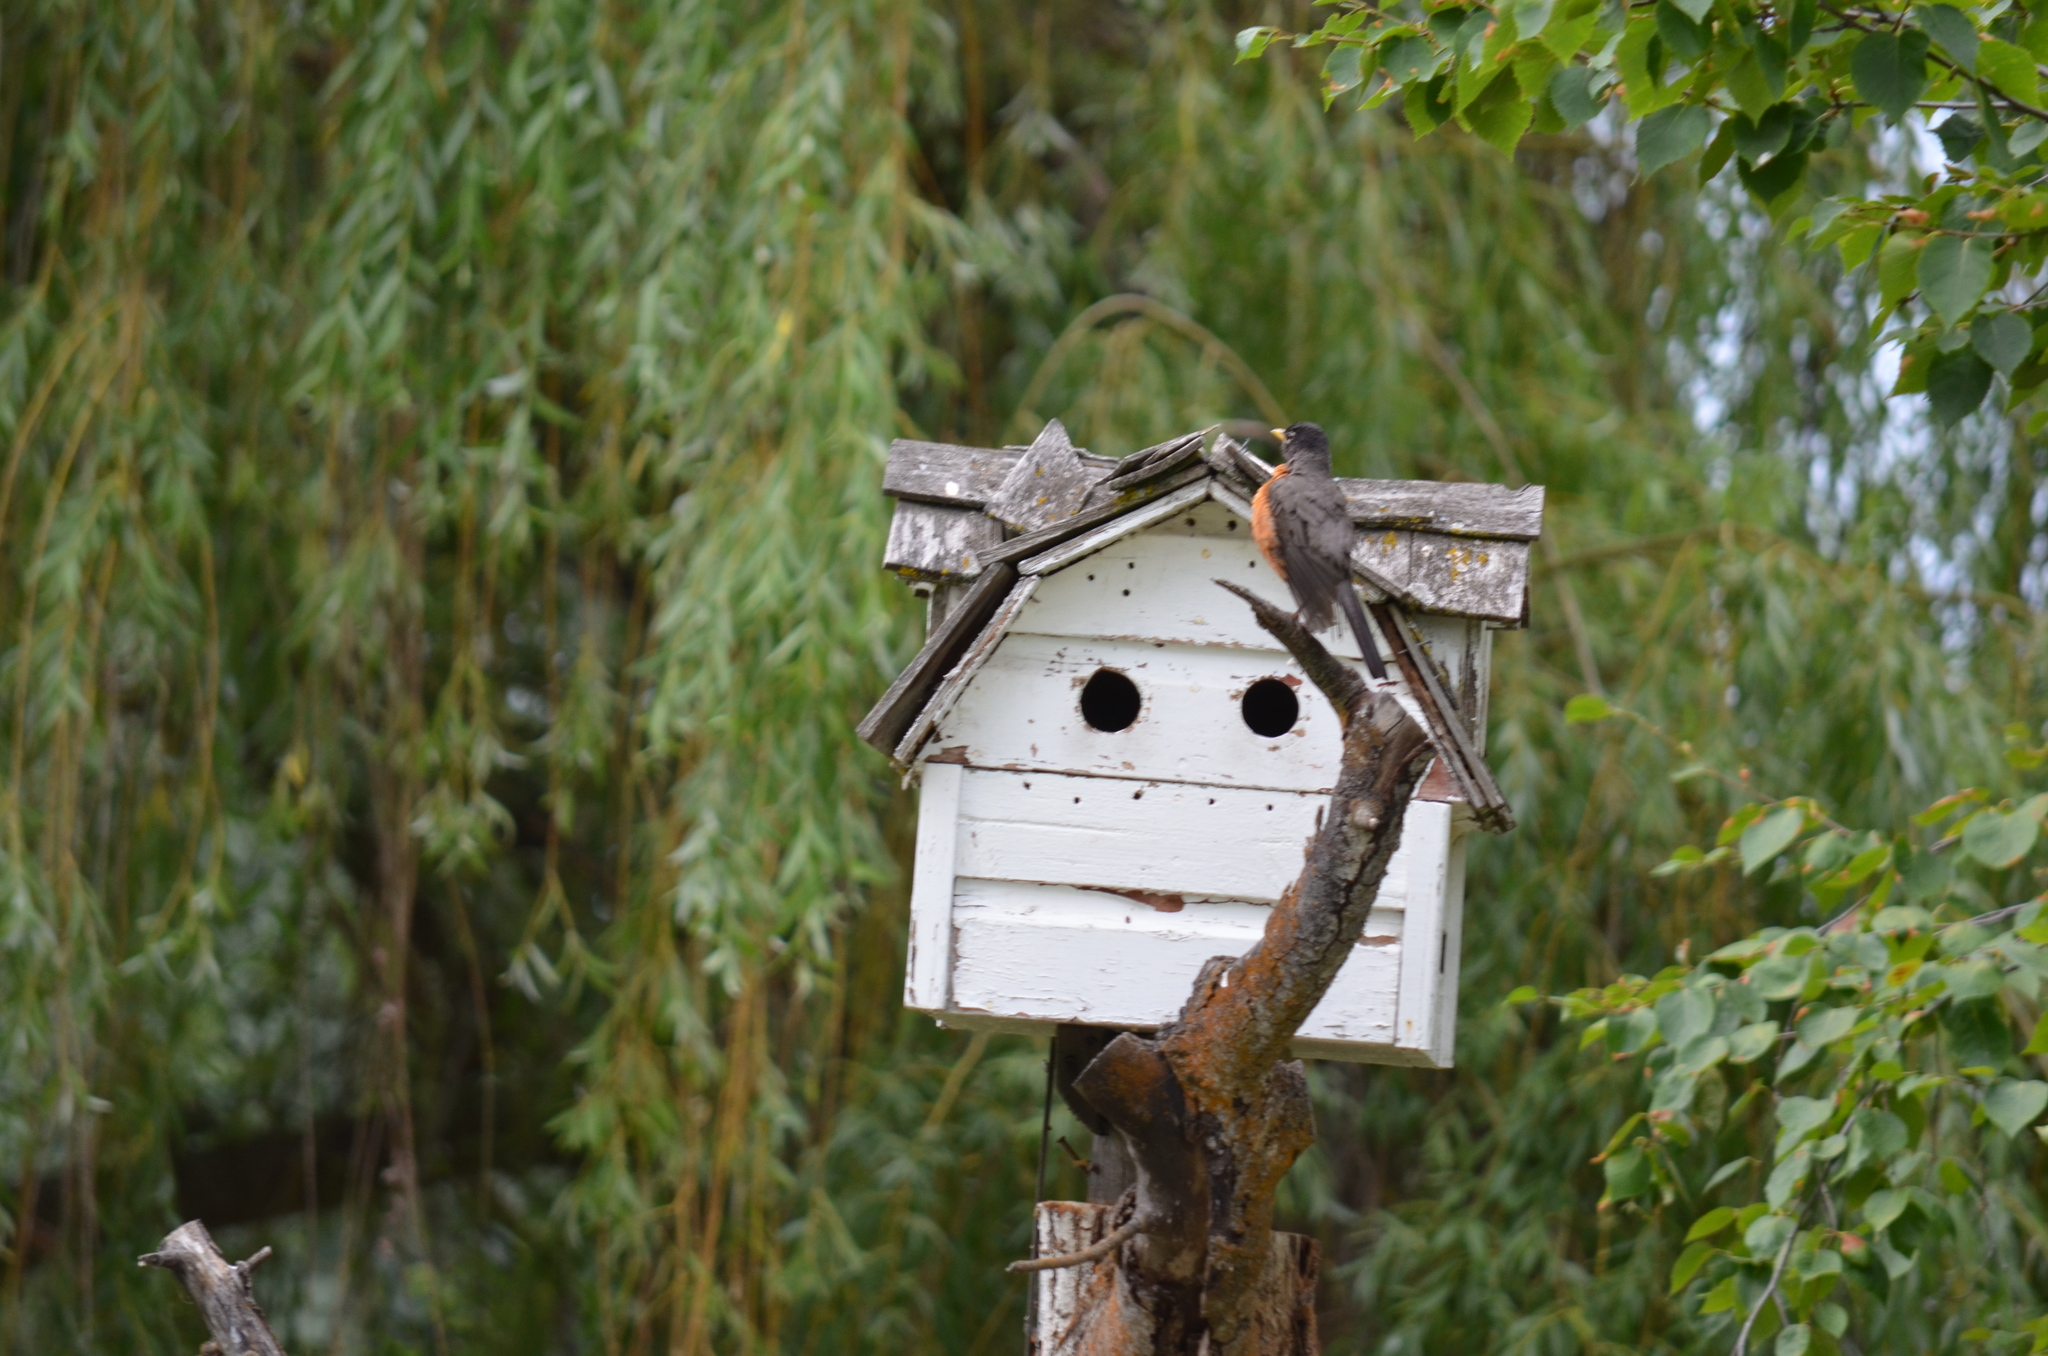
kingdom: Animalia
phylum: Chordata
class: Aves
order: Passeriformes
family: Turdidae
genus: Turdus
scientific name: Turdus migratorius
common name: American robin
